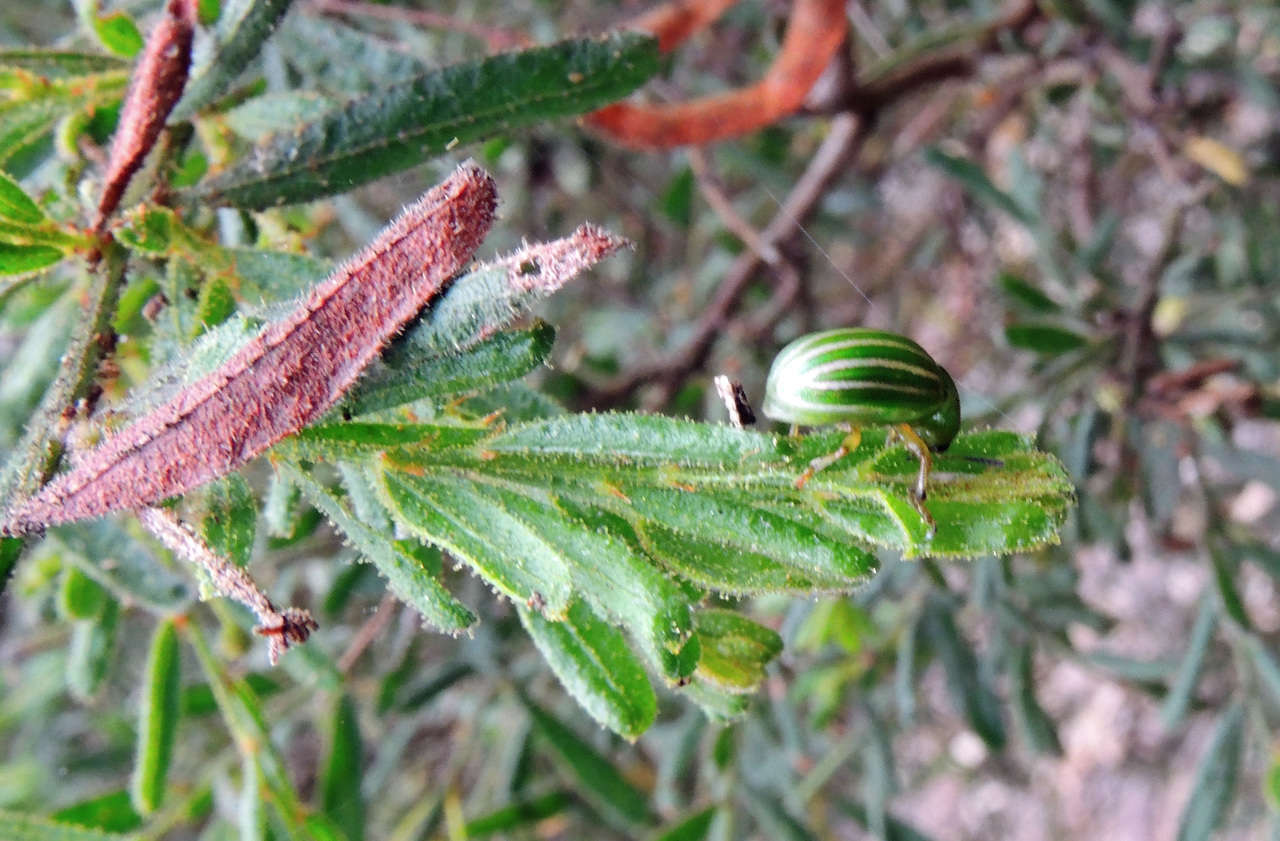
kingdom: Plantae
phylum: Tracheophyta
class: Magnoliopsida
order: Fabales
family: Fabaceae
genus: Acacia
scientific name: Acacia aspera
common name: Rough wattle
